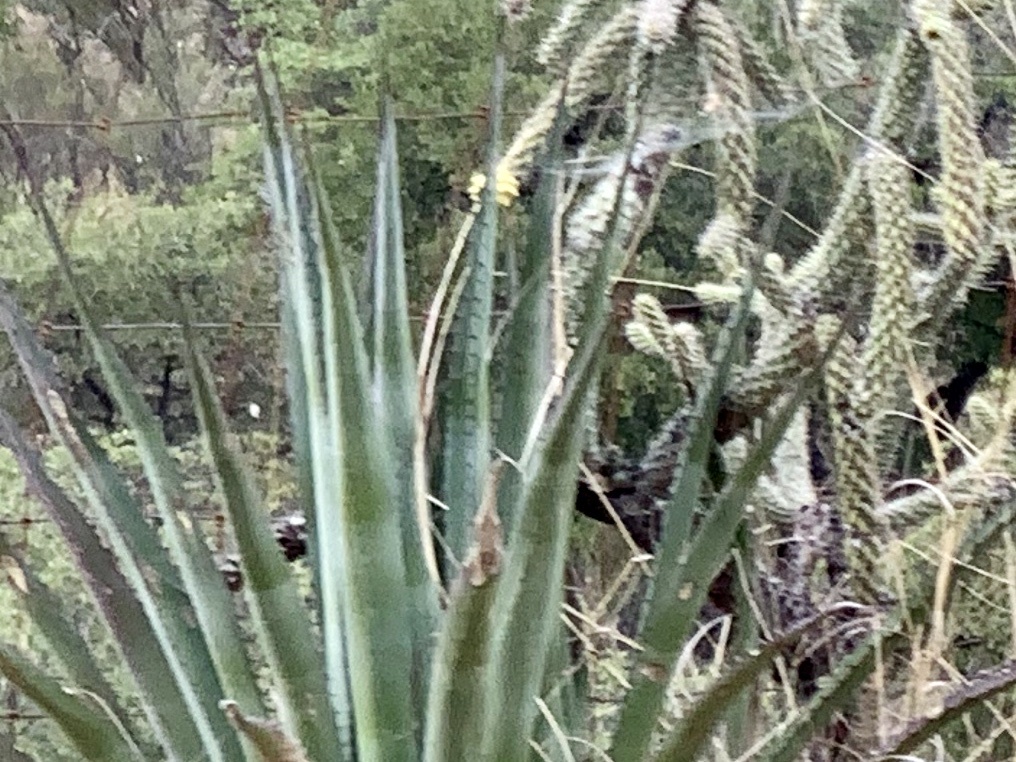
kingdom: Plantae
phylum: Tracheophyta
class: Liliopsida
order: Asparagales
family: Asparagaceae
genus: Agave
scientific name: Agave palmeri
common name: Palmer agave
